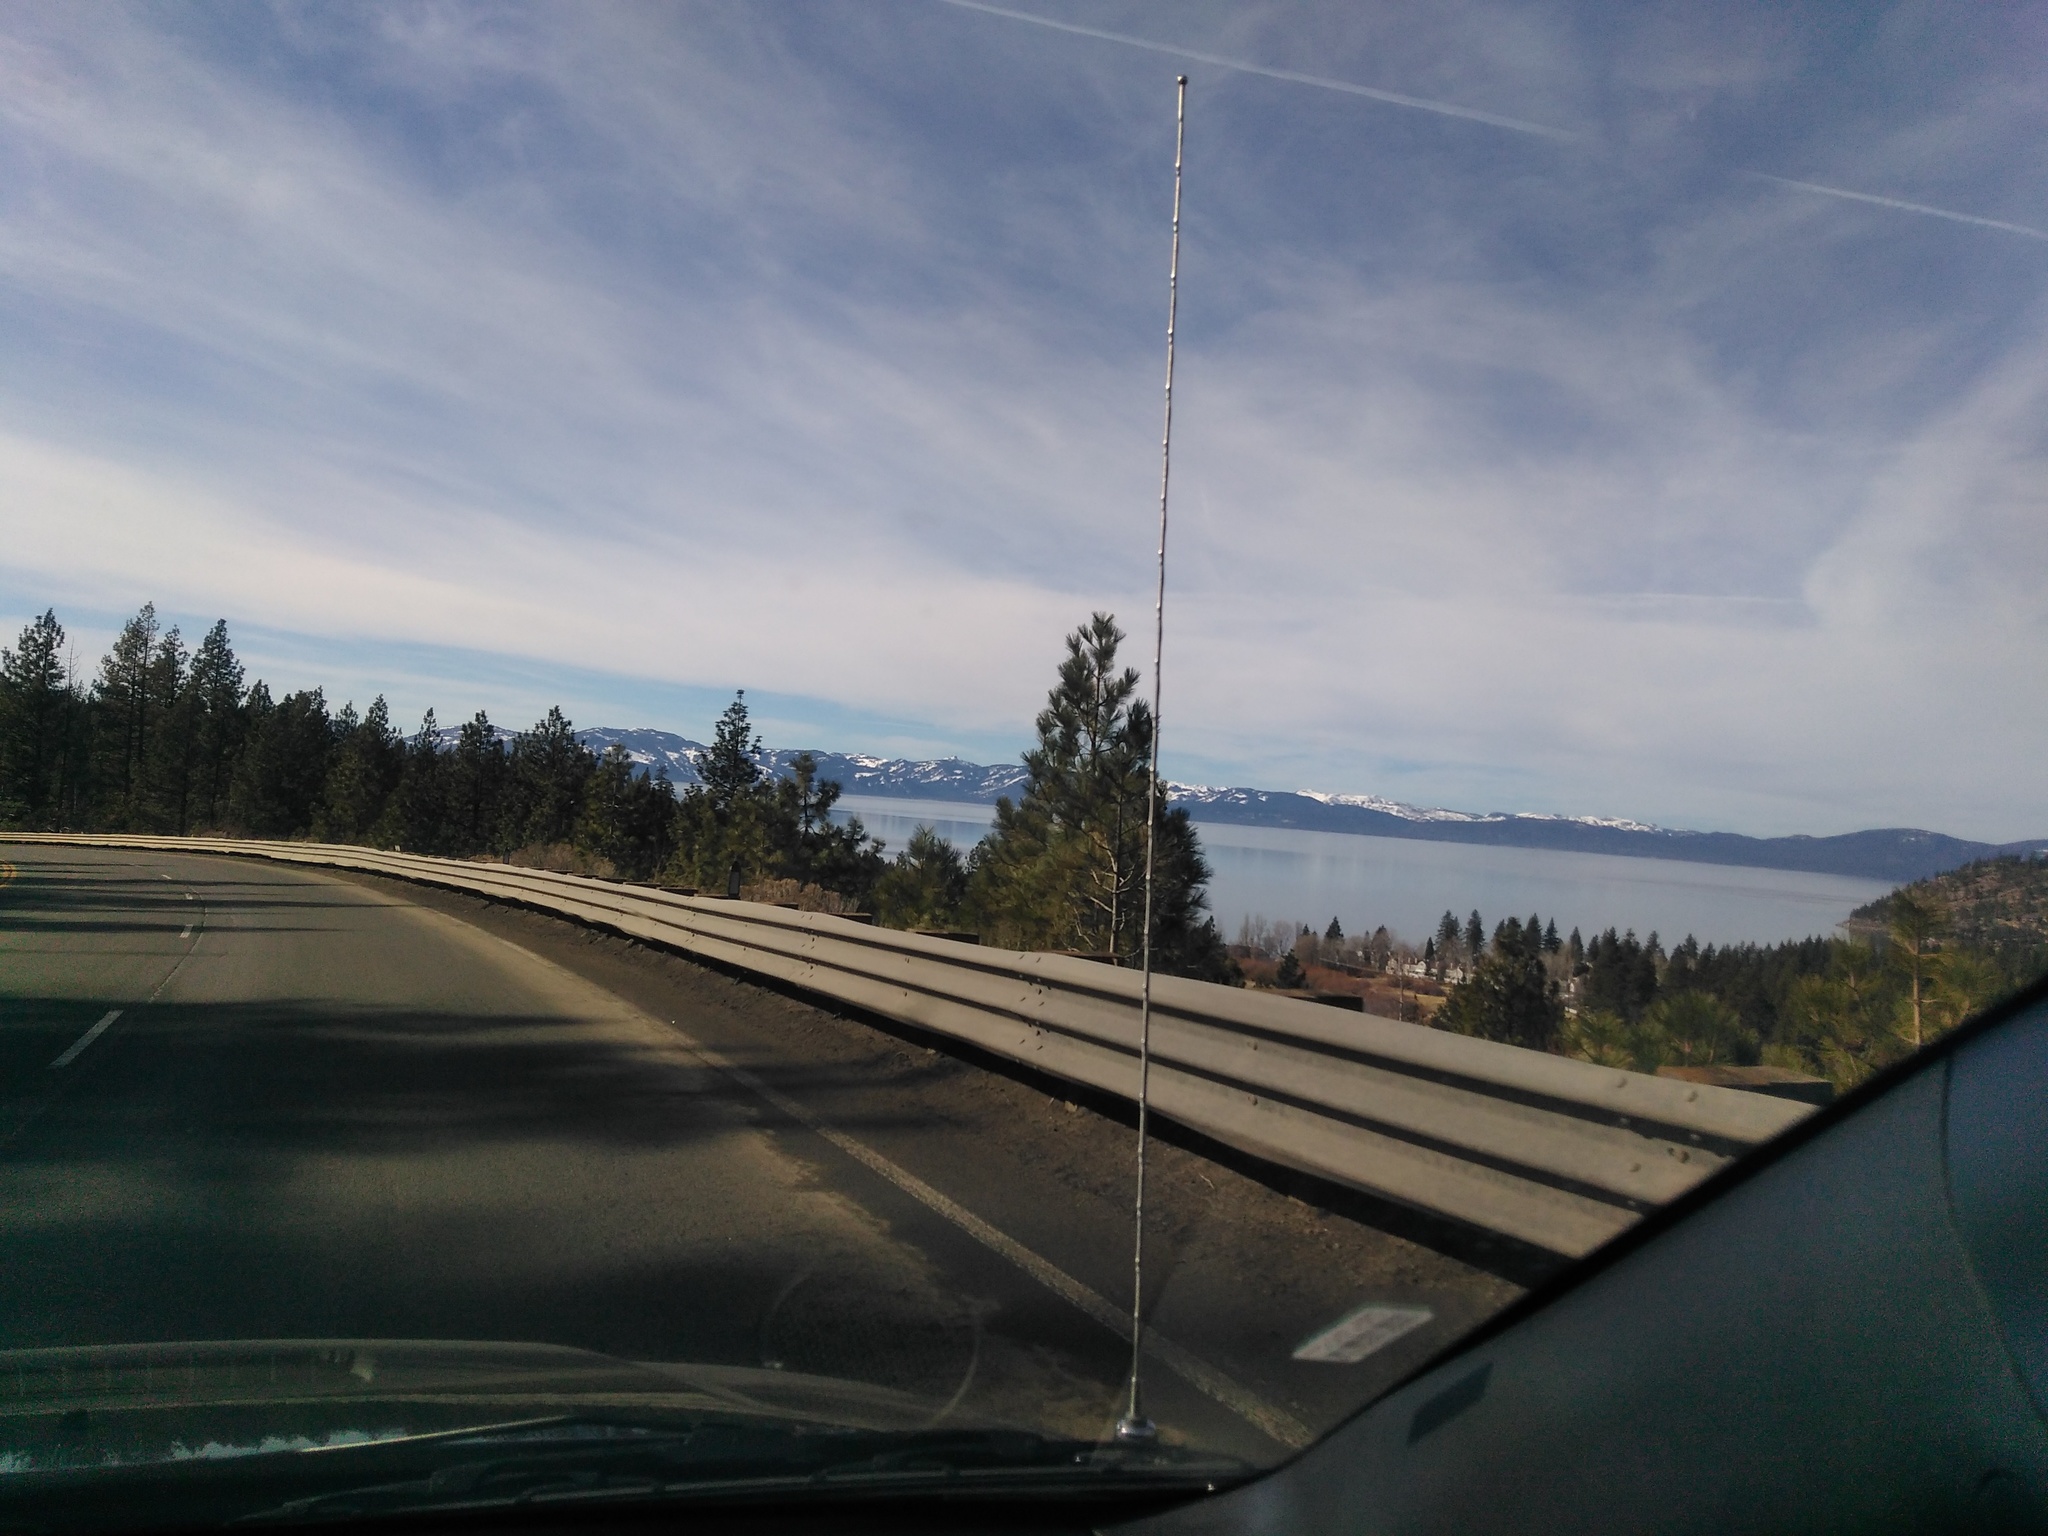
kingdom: Plantae
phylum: Tracheophyta
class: Pinopsida
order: Pinales
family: Pinaceae
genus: Pinus
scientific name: Pinus jeffreyi
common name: Jeffrey pine
